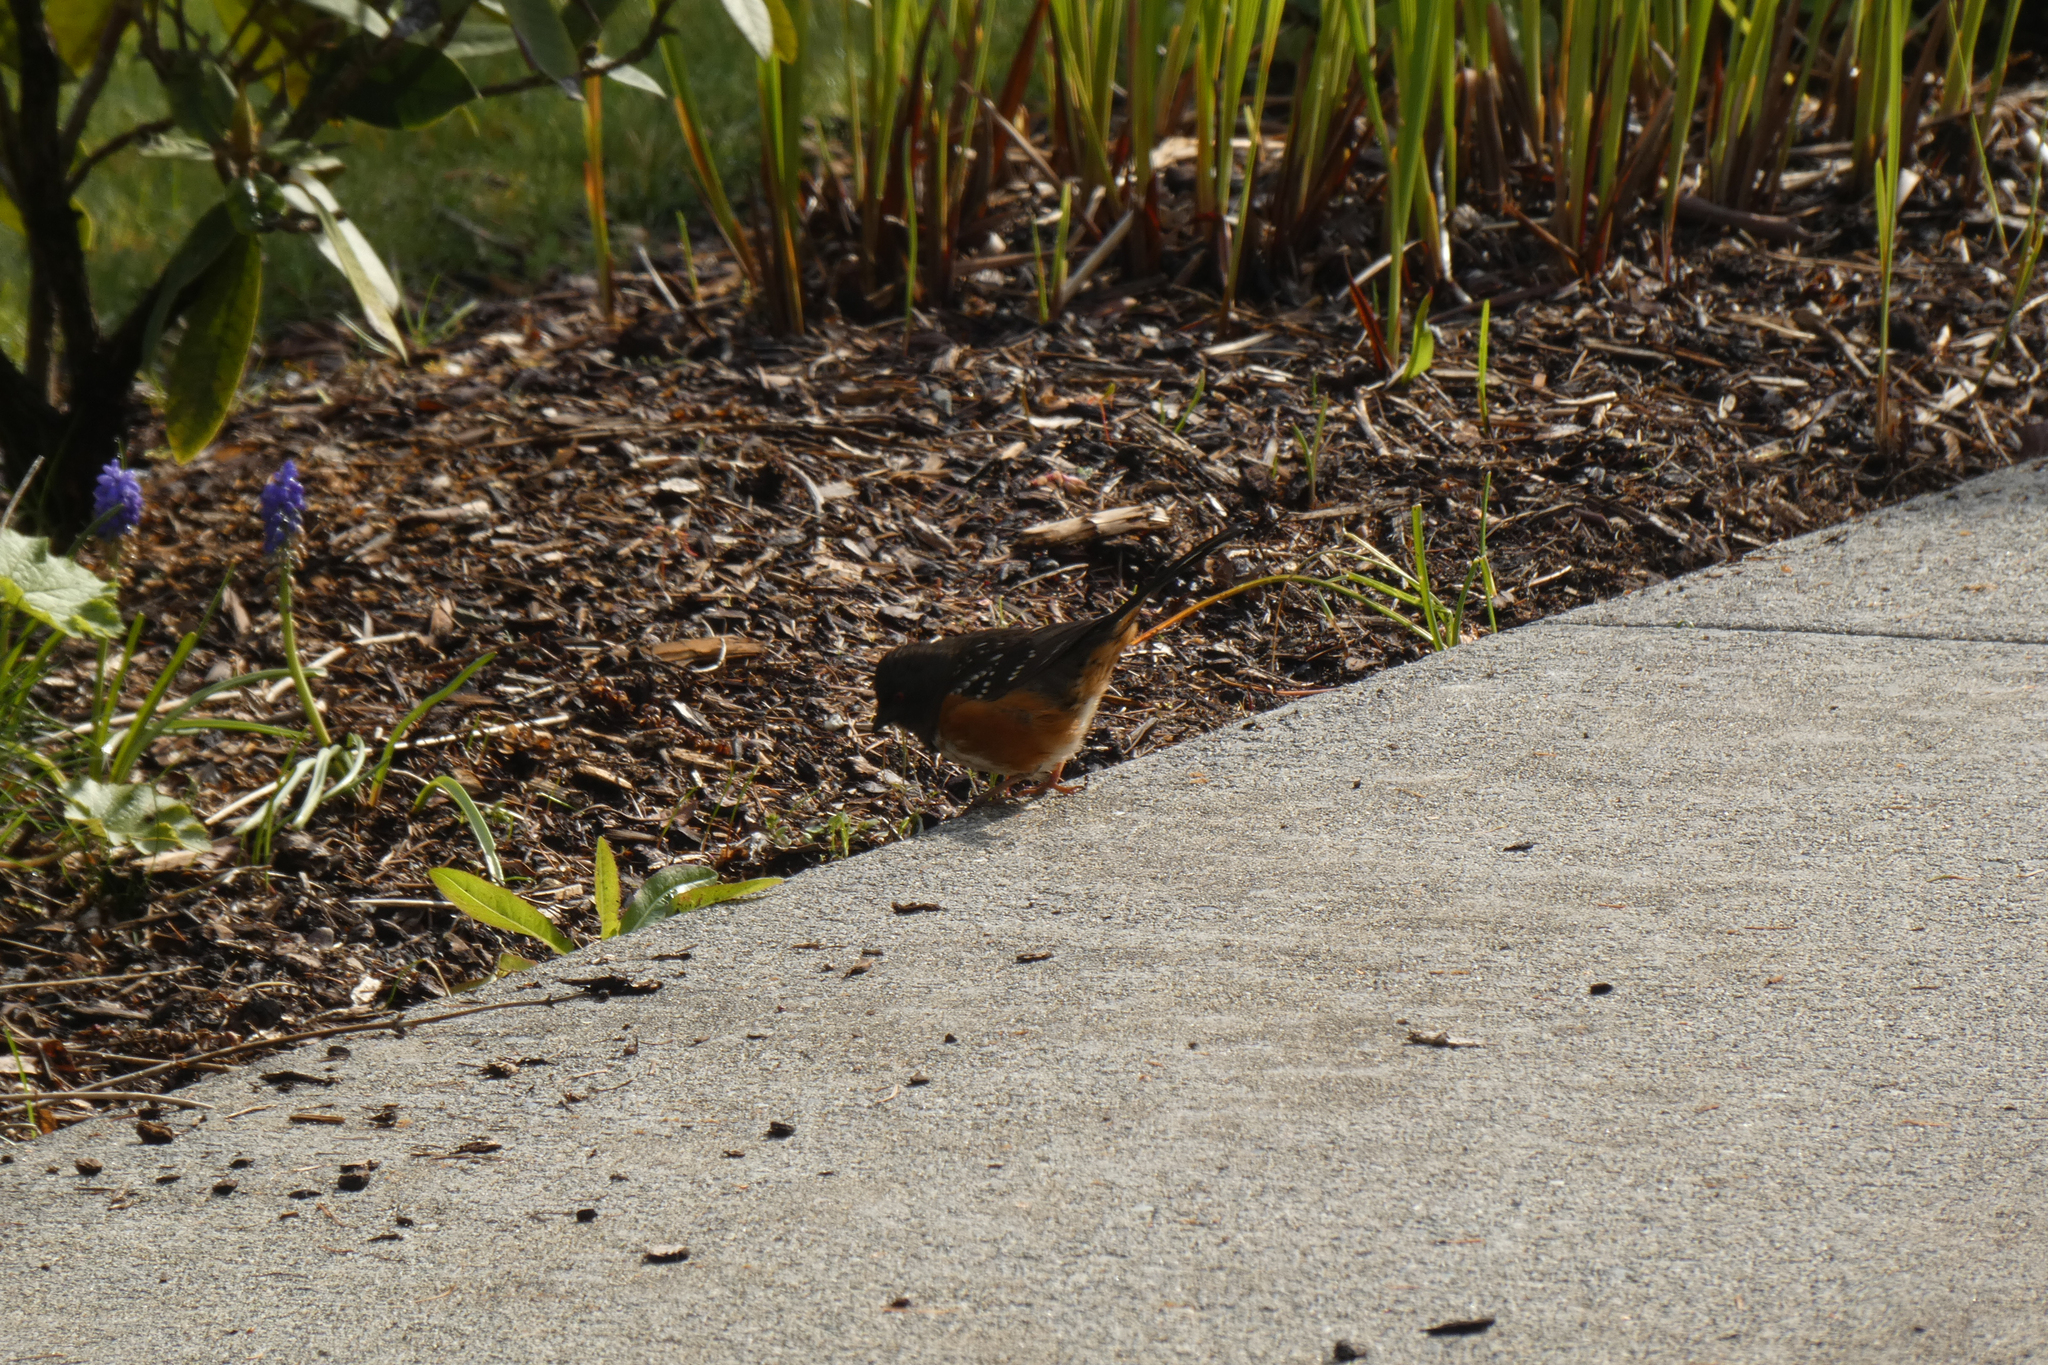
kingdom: Animalia
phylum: Chordata
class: Aves
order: Passeriformes
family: Passerellidae
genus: Pipilo
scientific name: Pipilo maculatus
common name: Spotted towhee
